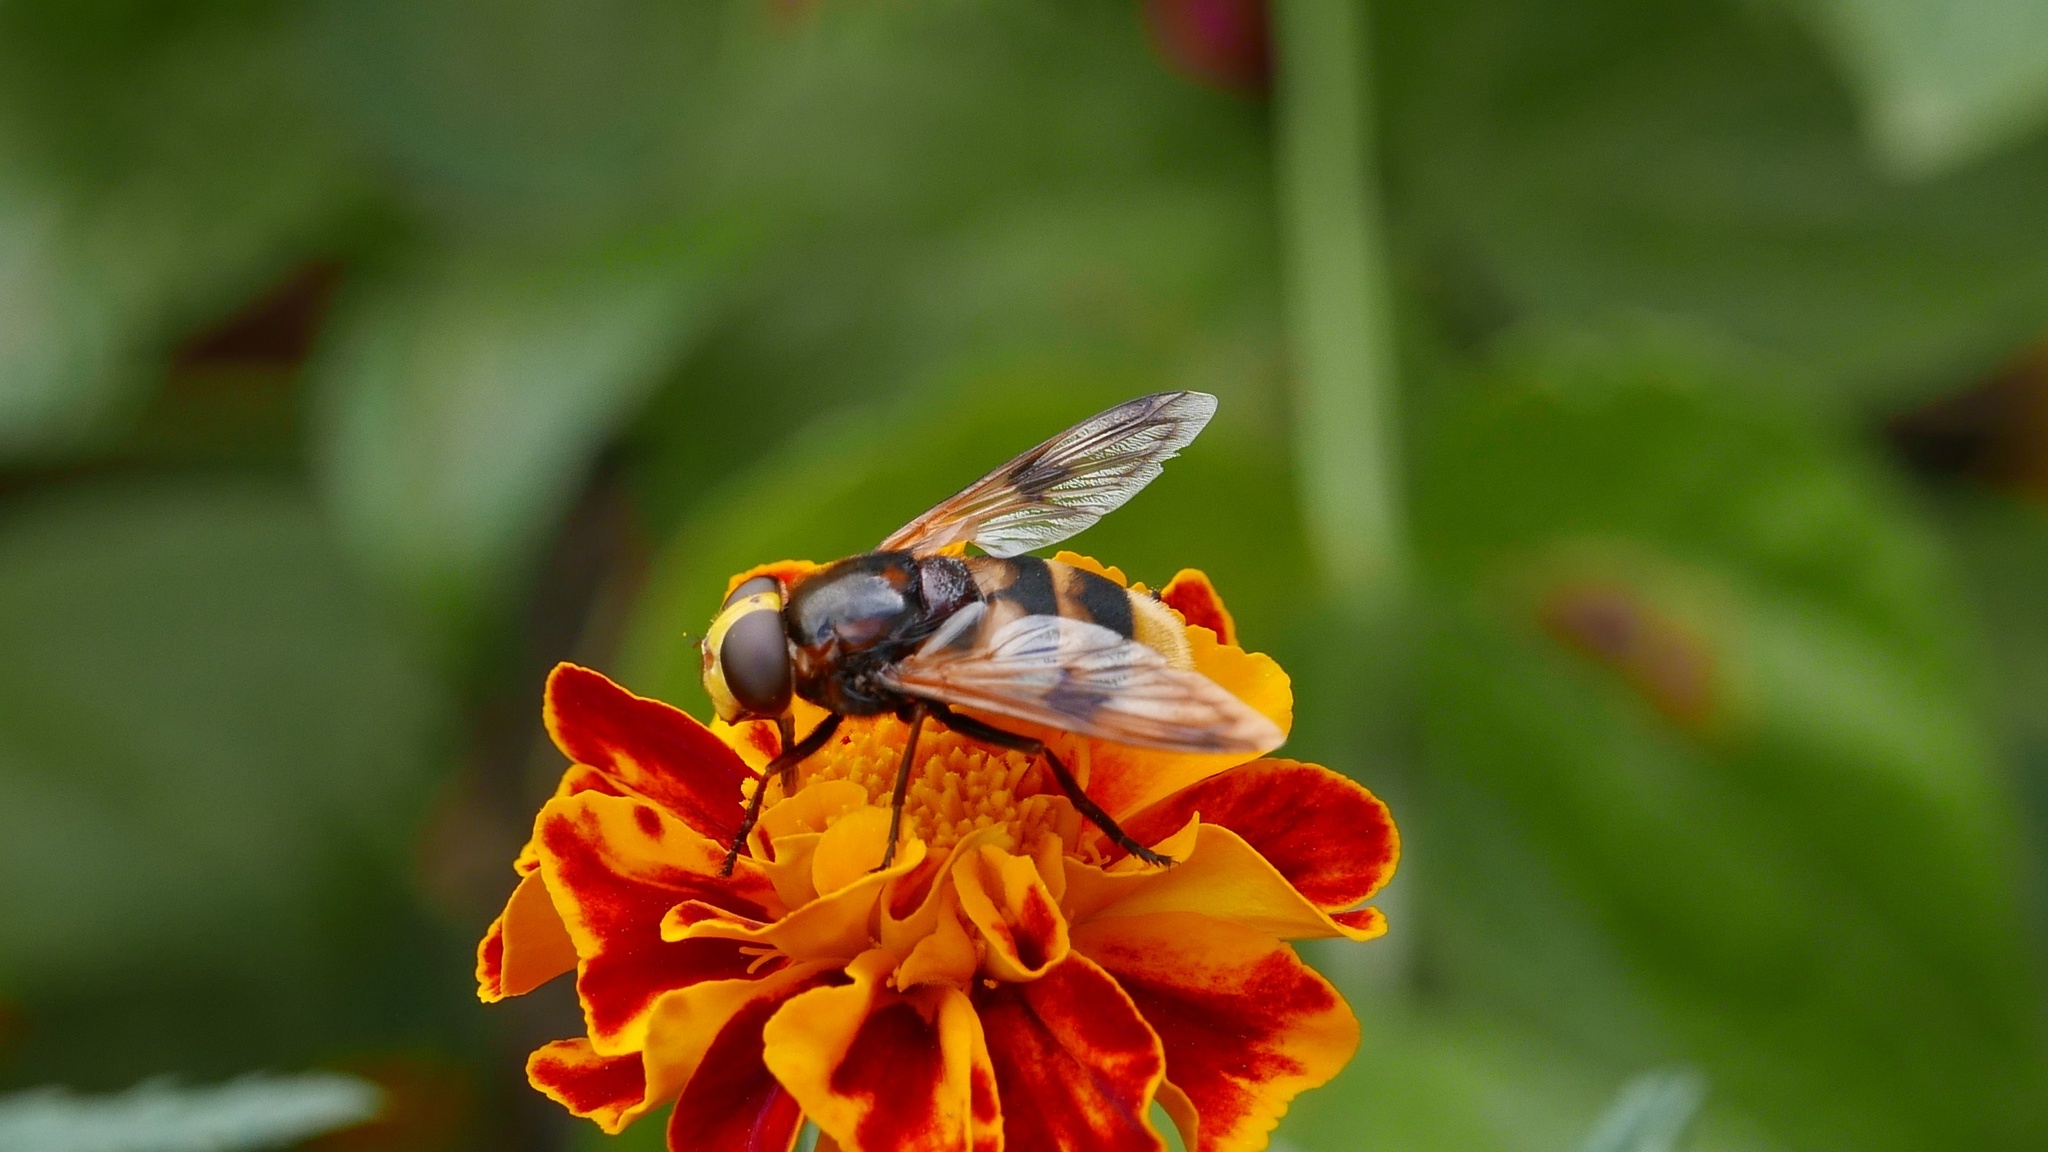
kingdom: Animalia
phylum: Arthropoda
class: Insecta
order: Diptera
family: Syrphidae
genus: Volucella
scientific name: Volucella elegans
